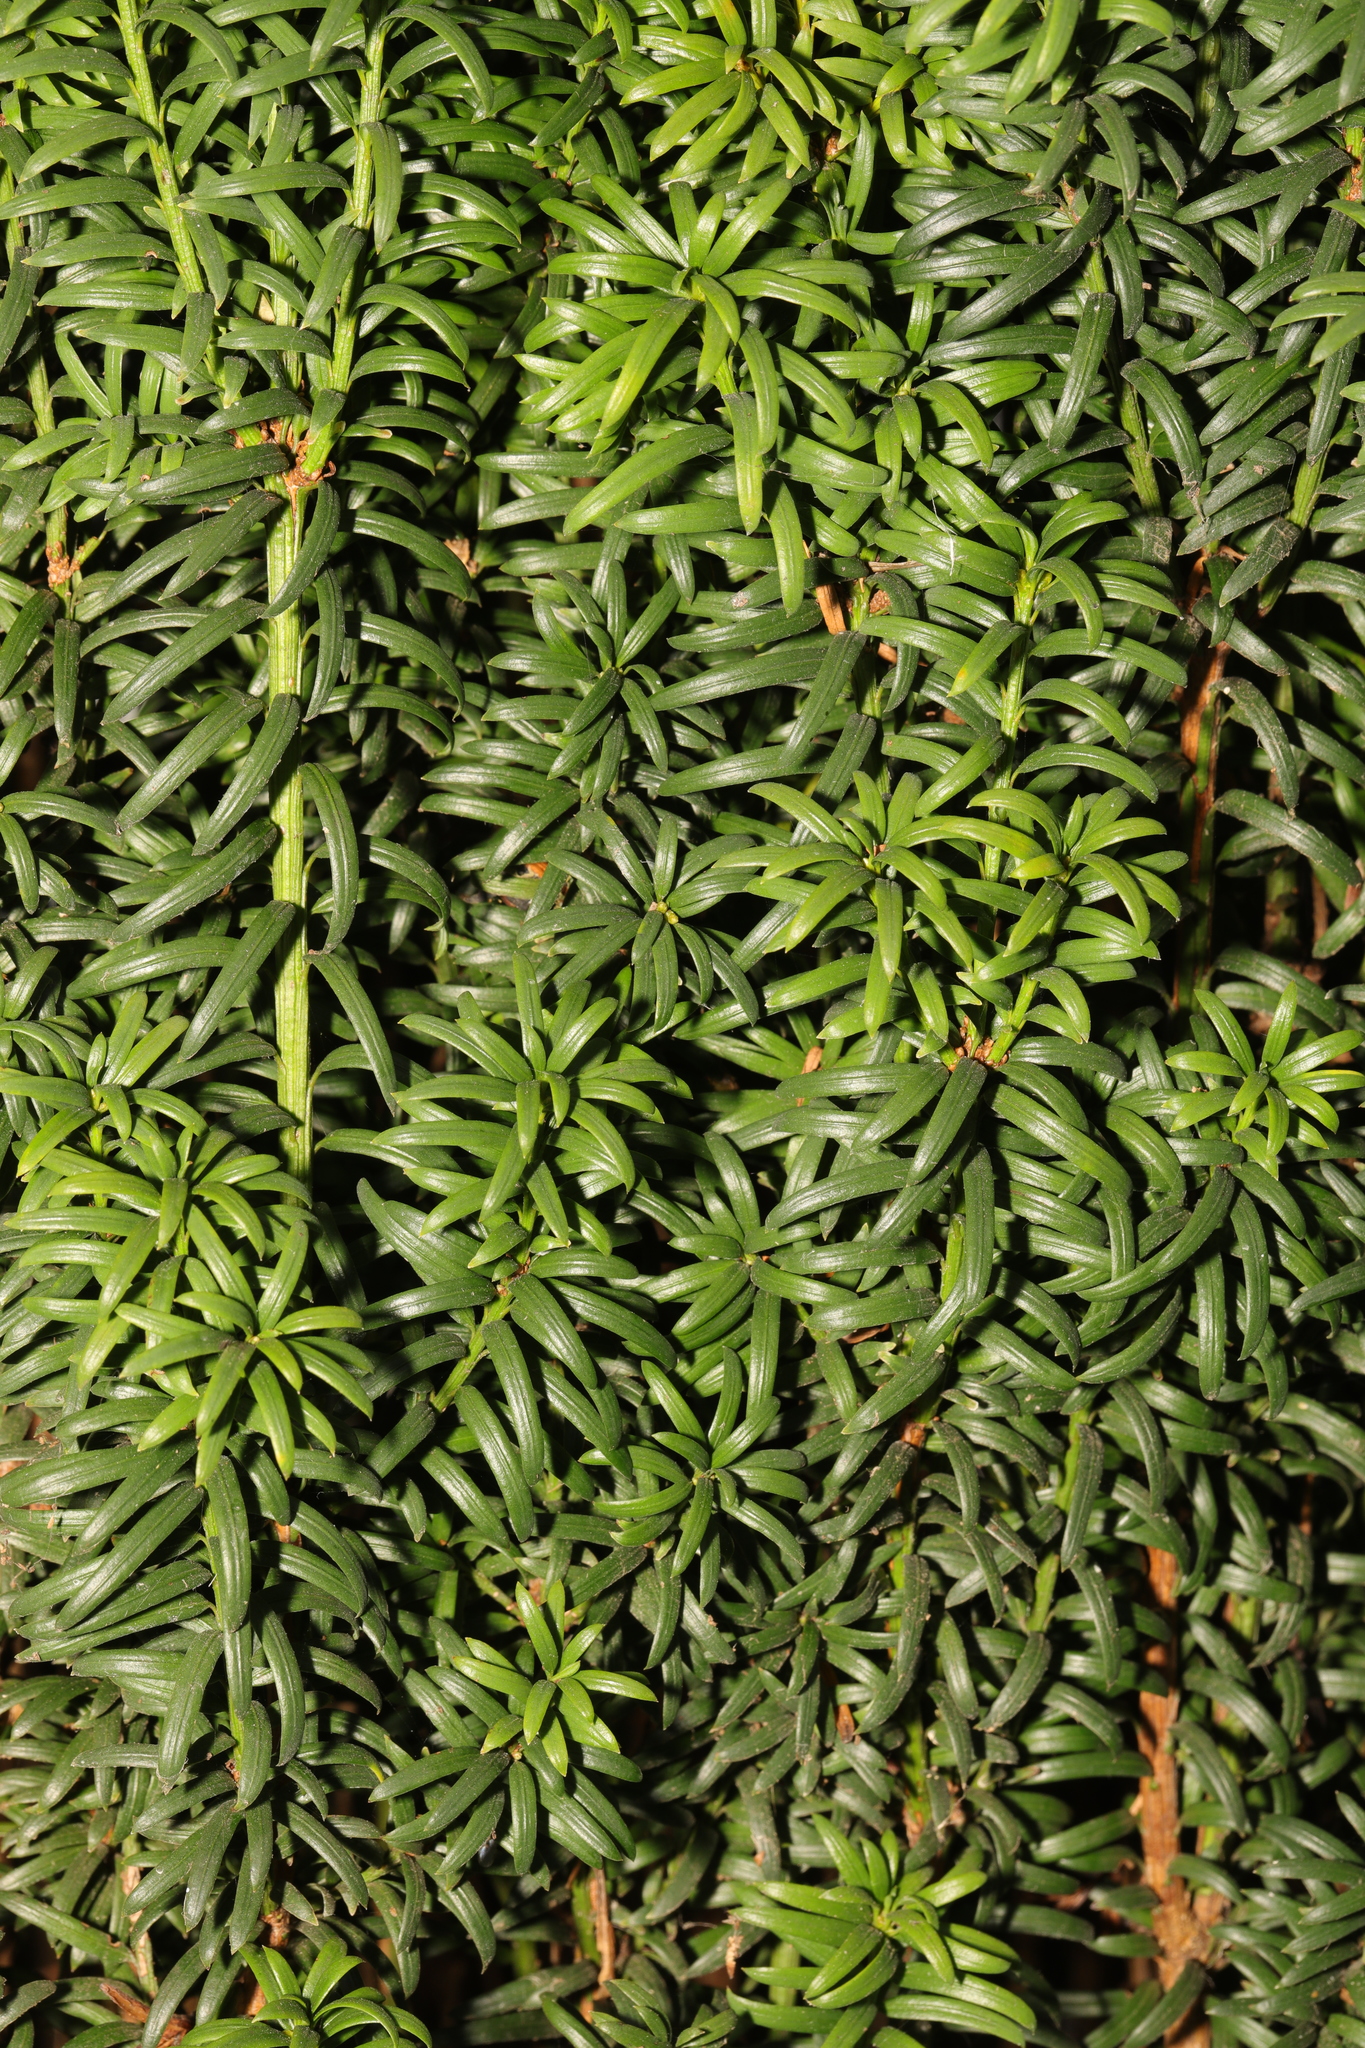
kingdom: Plantae
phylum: Tracheophyta
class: Pinopsida
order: Pinales
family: Taxaceae
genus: Taxus
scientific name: Taxus baccata
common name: Yew
